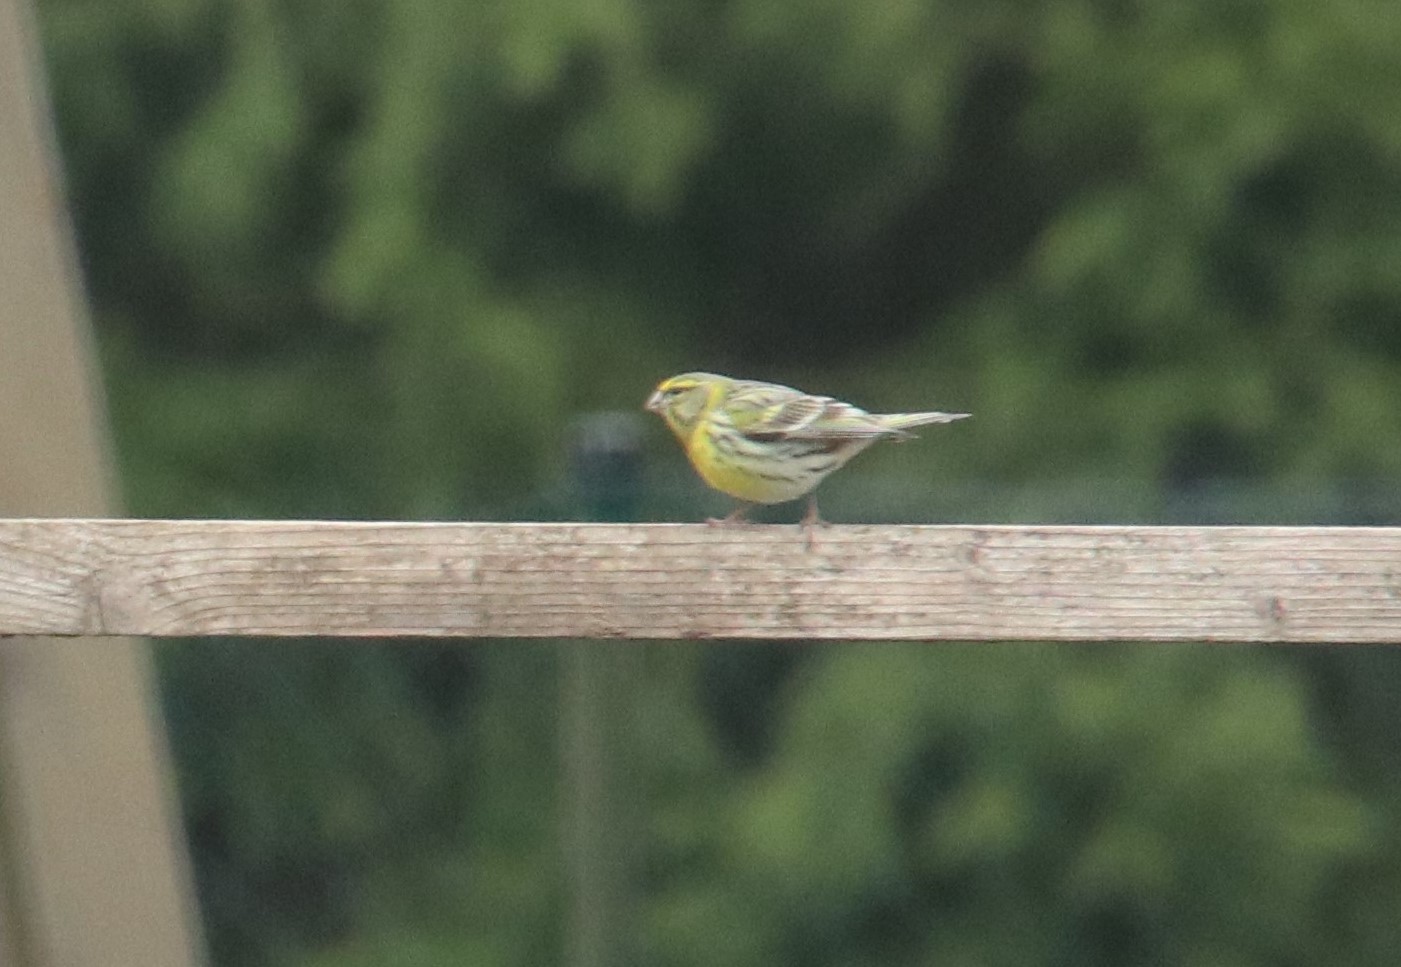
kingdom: Animalia
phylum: Chordata
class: Aves
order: Passeriformes
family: Fringillidae
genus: Serinus
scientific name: Serinus serinus
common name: European serin
